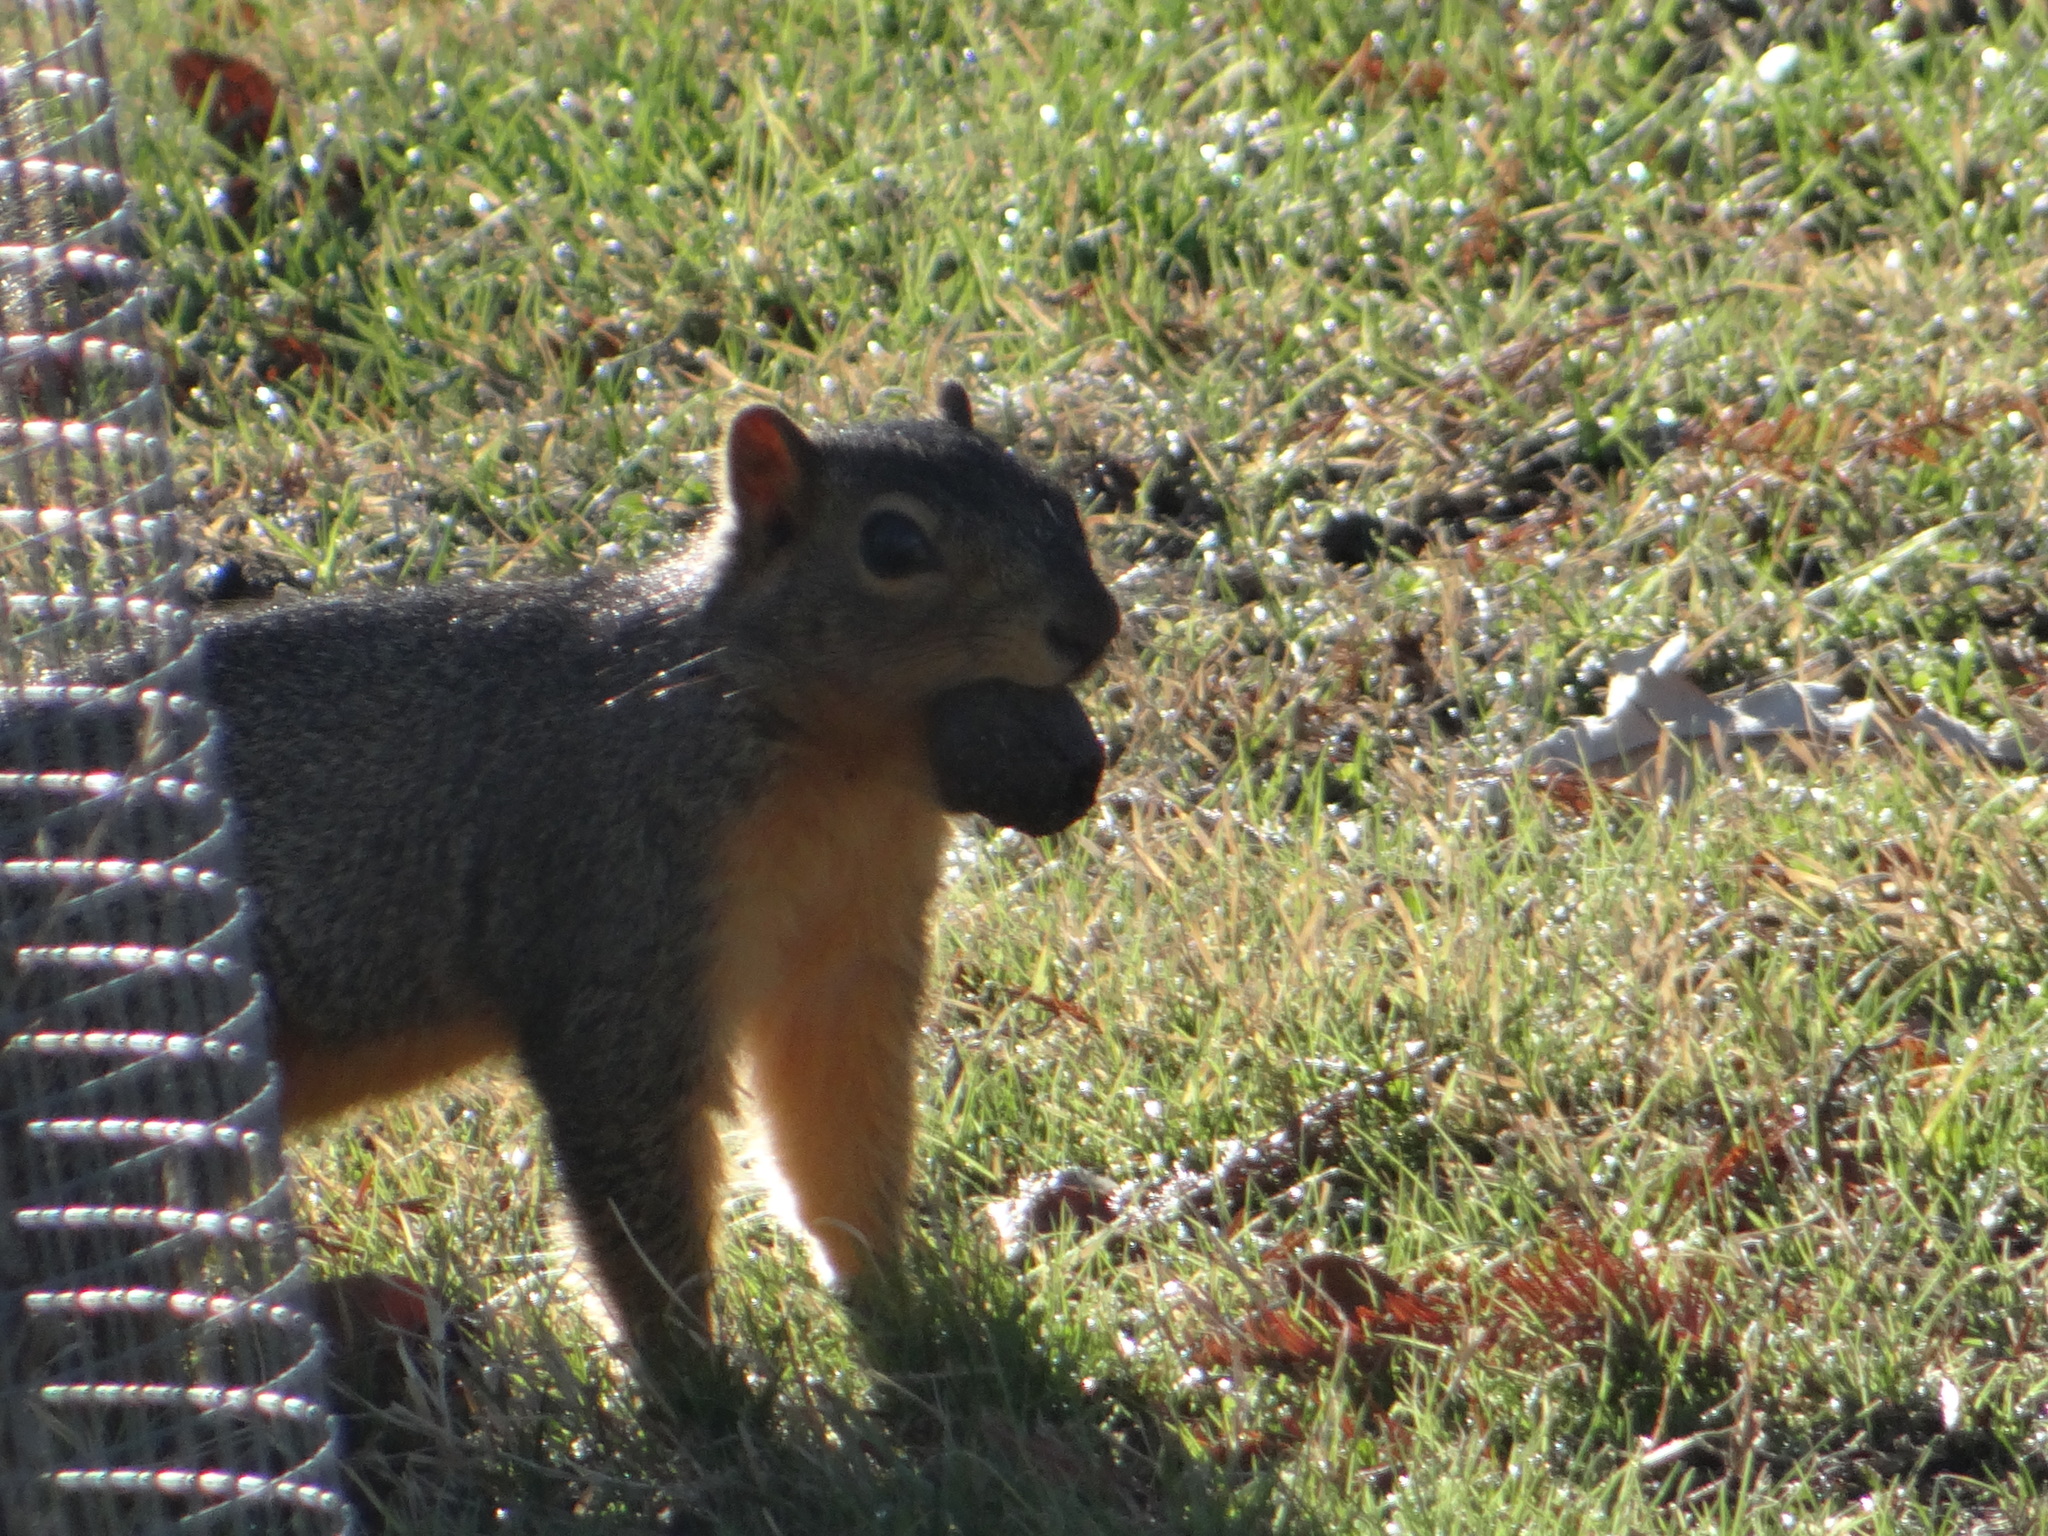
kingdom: Animalia
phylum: Chordata
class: Mammalia
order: Rodentia
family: Sciuridae
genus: Sciurus
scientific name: Sciurus niger
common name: Fox squirrel
